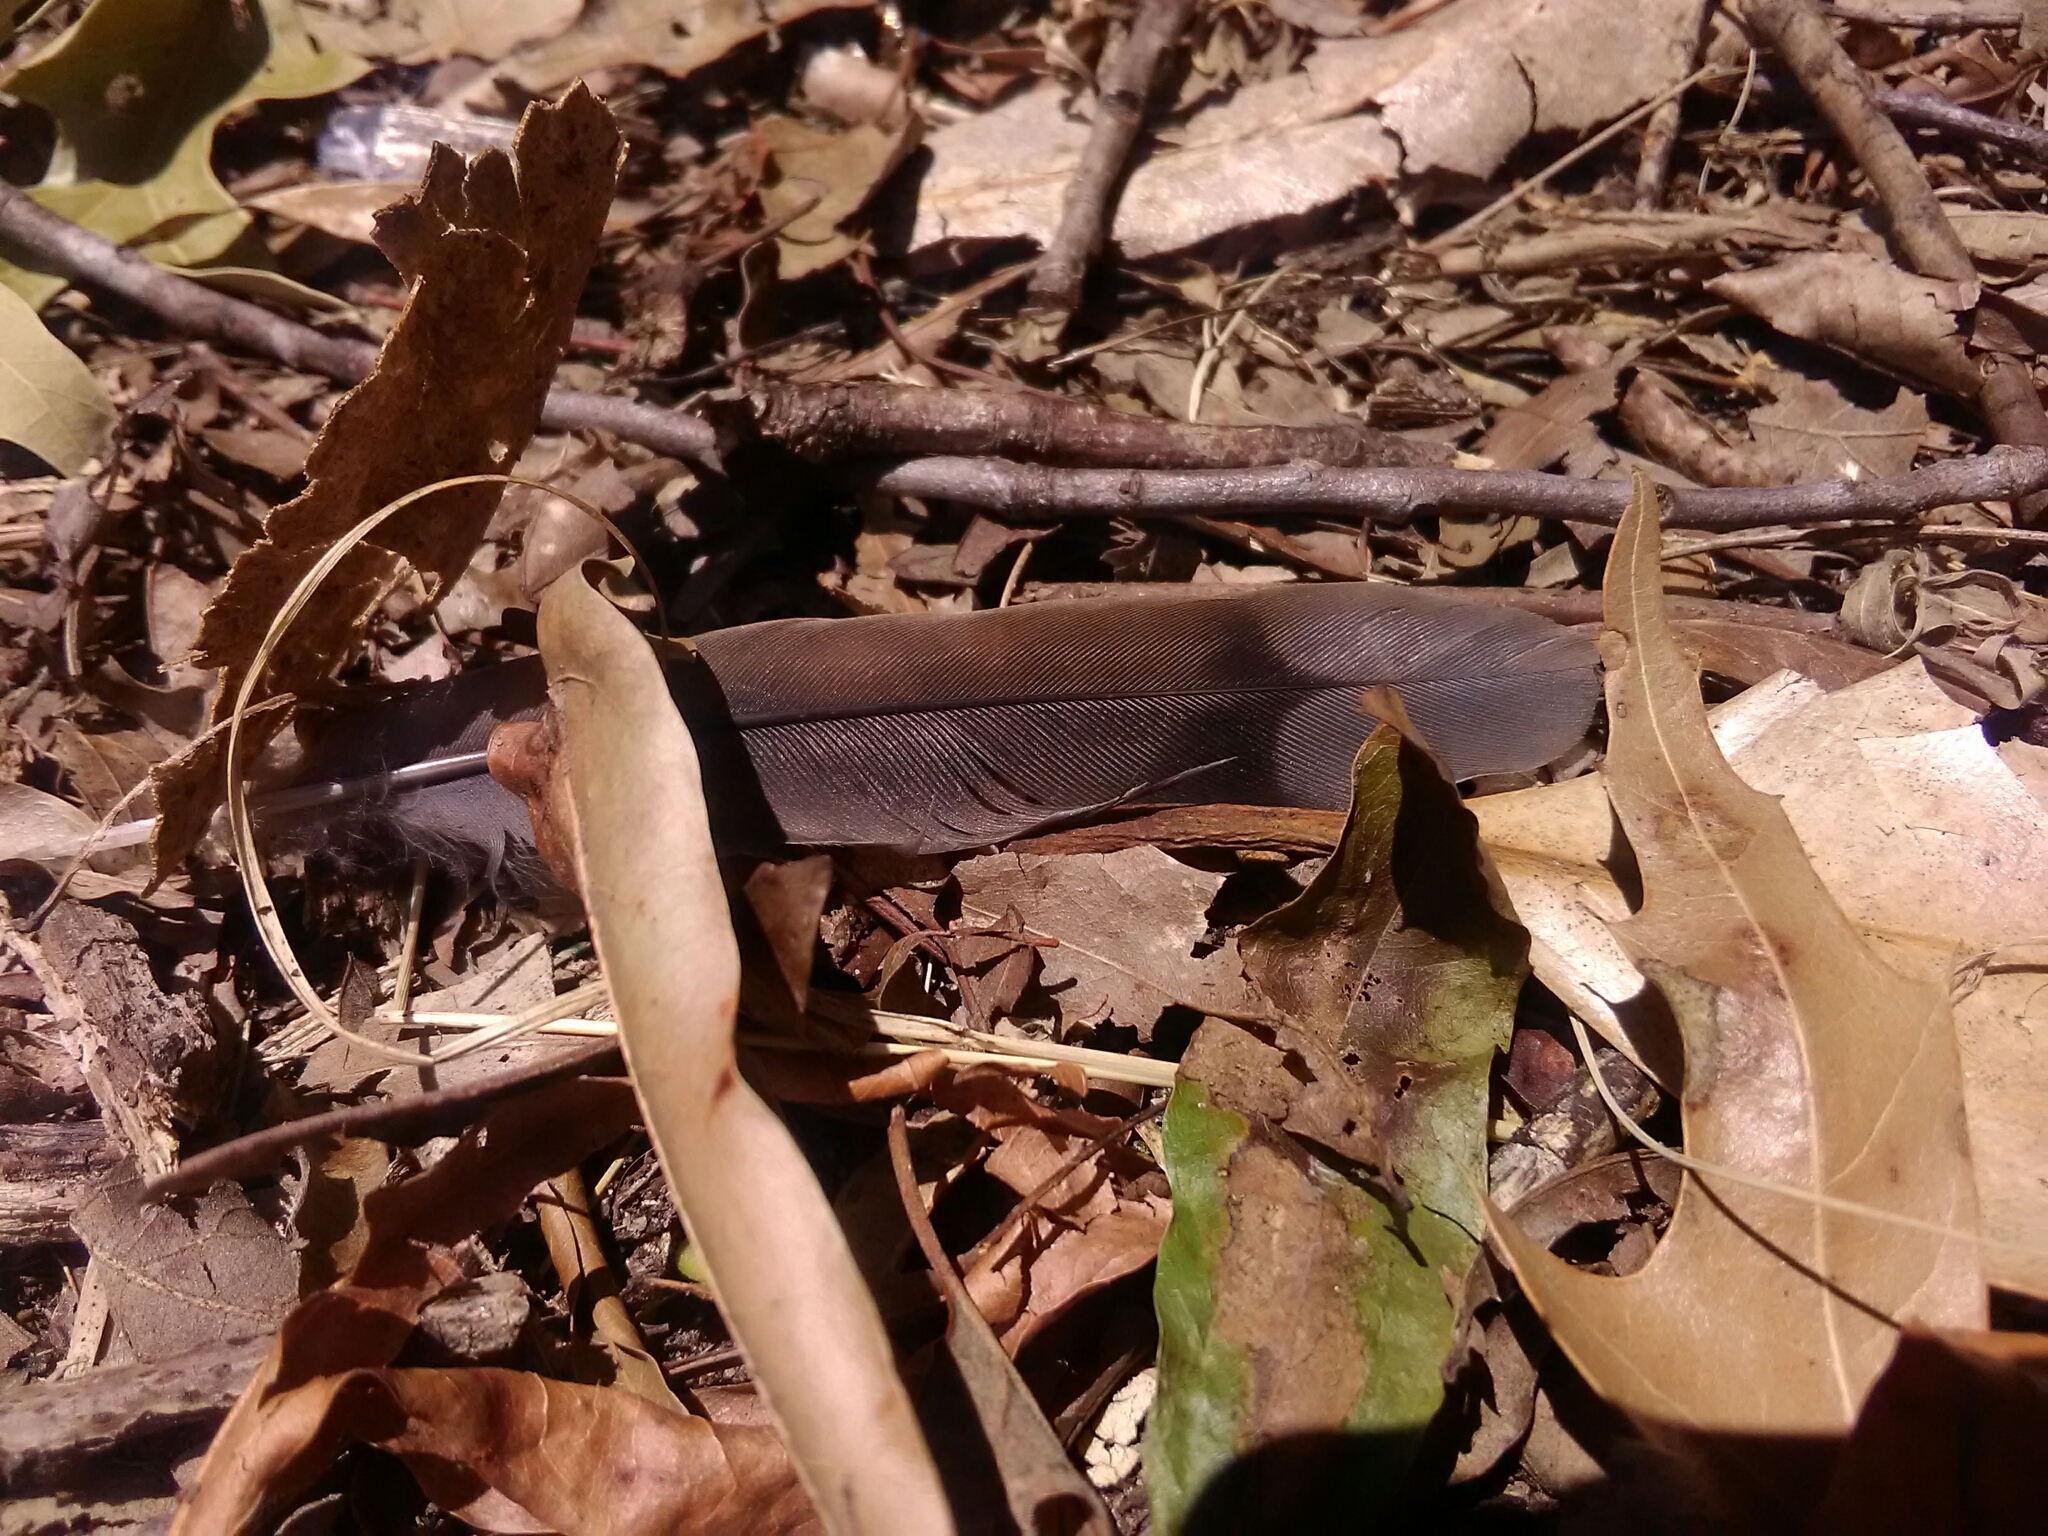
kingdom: Animalia
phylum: Chordata
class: Aves
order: Columbiformes
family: Columbidae
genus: Zenaida
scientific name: Zenaida macroura
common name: Mourning dove
